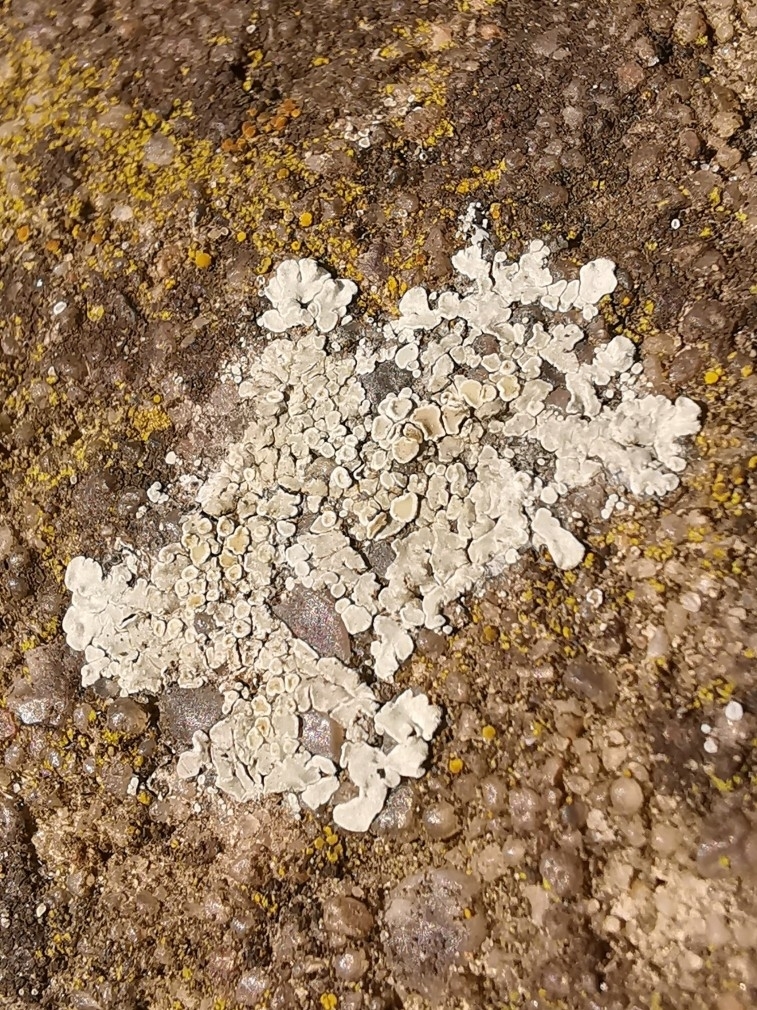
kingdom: Fungi
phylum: Ascomycota
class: Lecanoromycetes
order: Lecanorales
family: Lecanoraceae
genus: Protoparmeliopsis
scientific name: Protoparmeliopsis muralis
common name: Stonewall rim lichen
